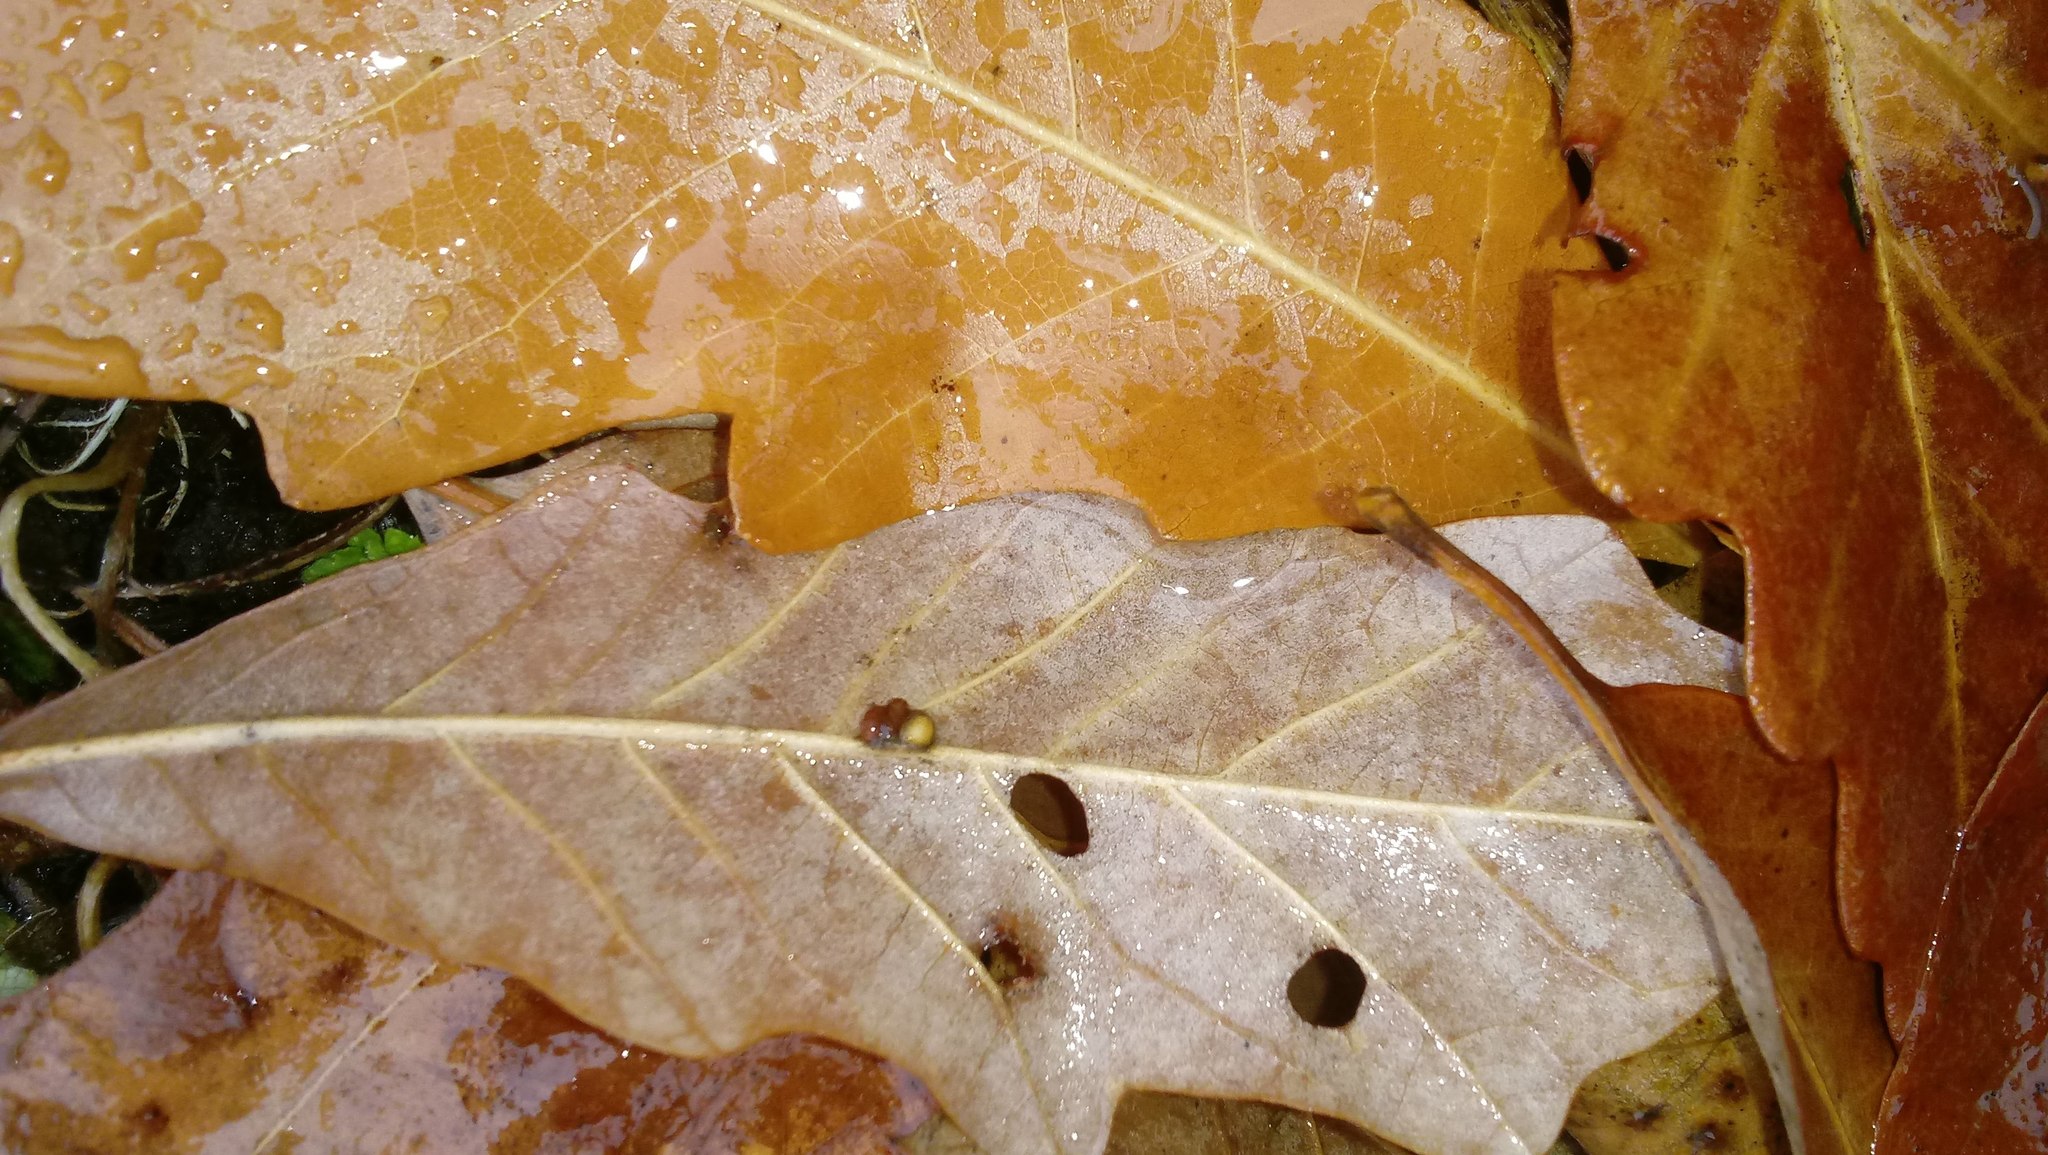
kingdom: Animalia
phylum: Arthropoda
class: Insecta
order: Hymenoptera
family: Cynipidae
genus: Andricus
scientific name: Andricus Druon ignotum
